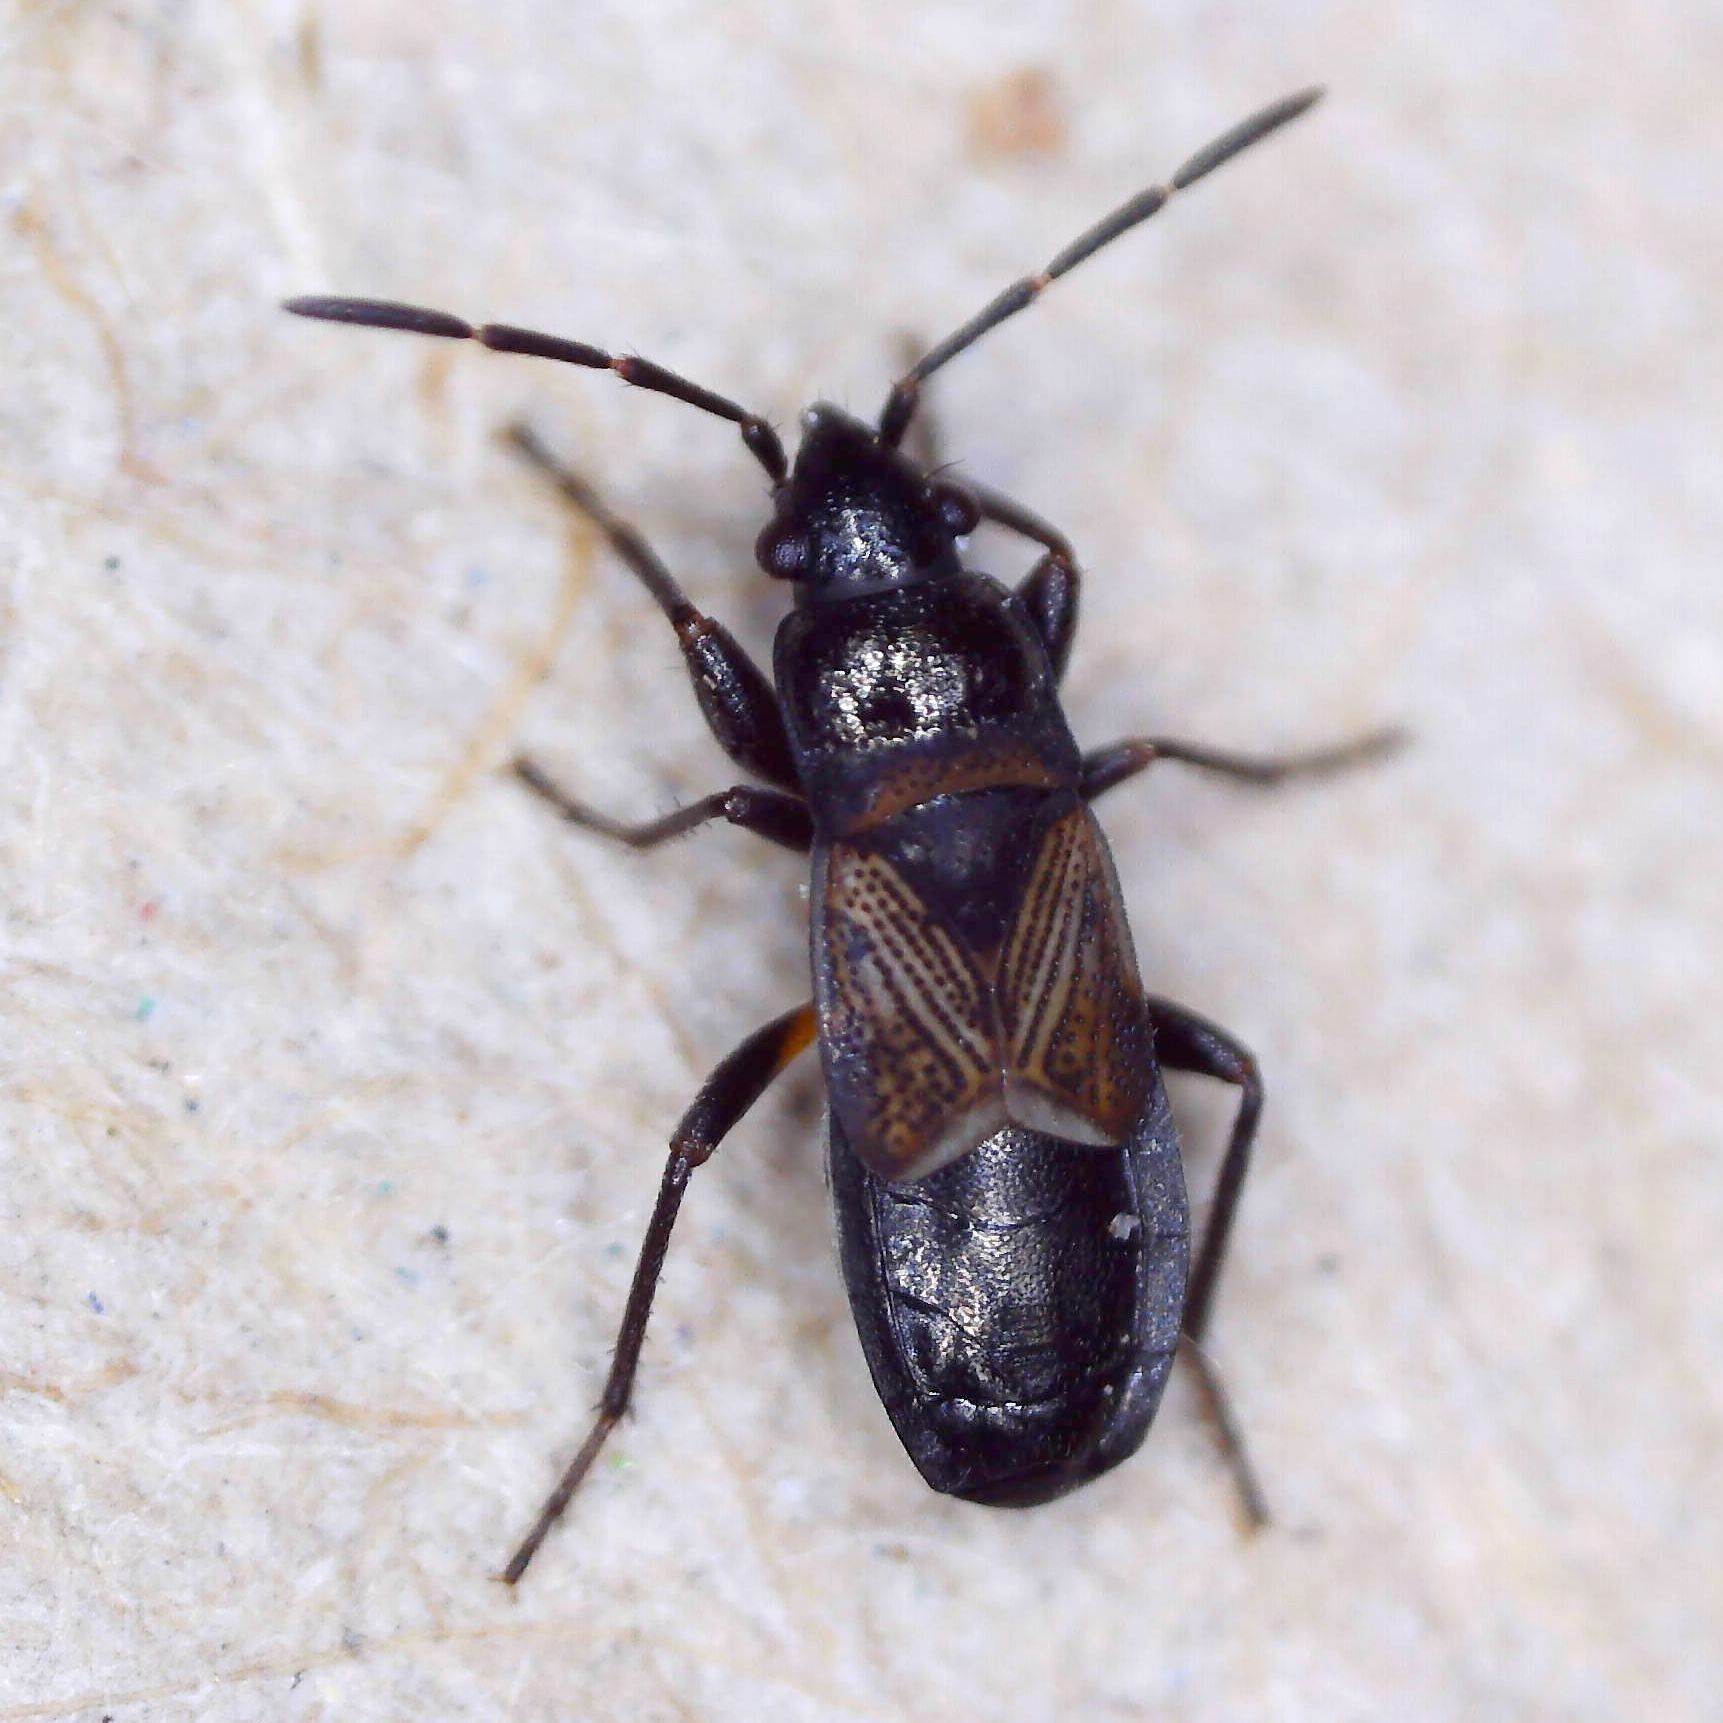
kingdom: Animalia
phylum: Arthropoda
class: Insecta
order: Hemiptera
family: Rhyparochromidae
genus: Macrodema
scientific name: Macrodema microptera
